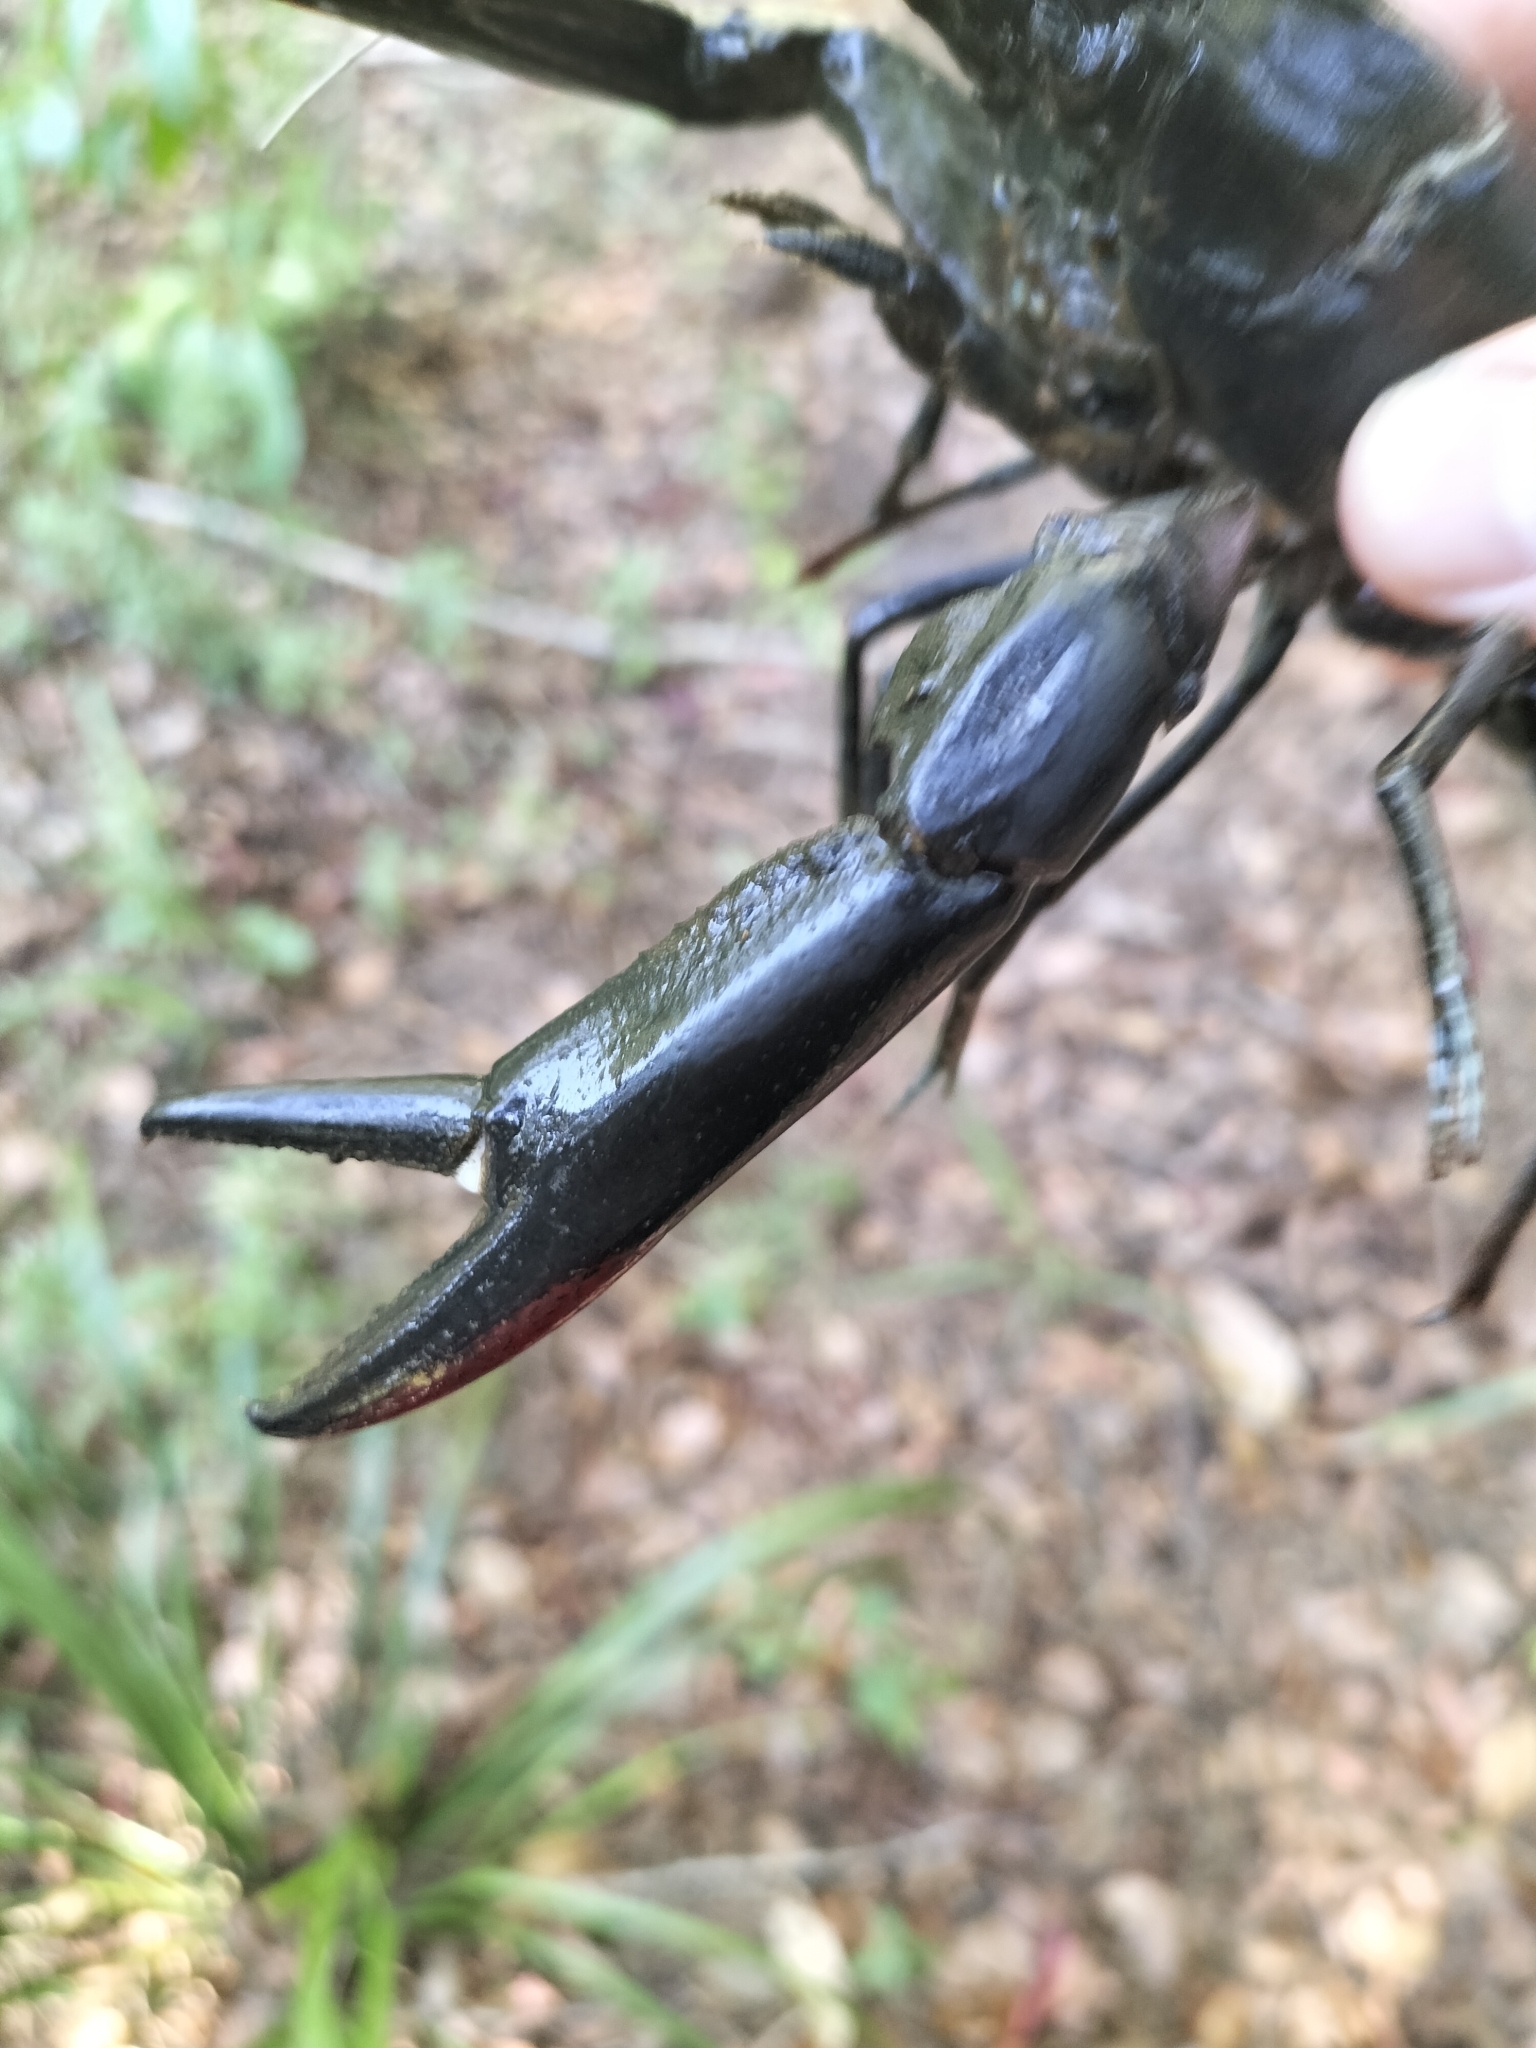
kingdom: Animalia
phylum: Arthropoda
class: Malacostraca
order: Decapoda
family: Parastacidae
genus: Cherax
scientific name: Cherax quadricarinatus
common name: Redclaw
